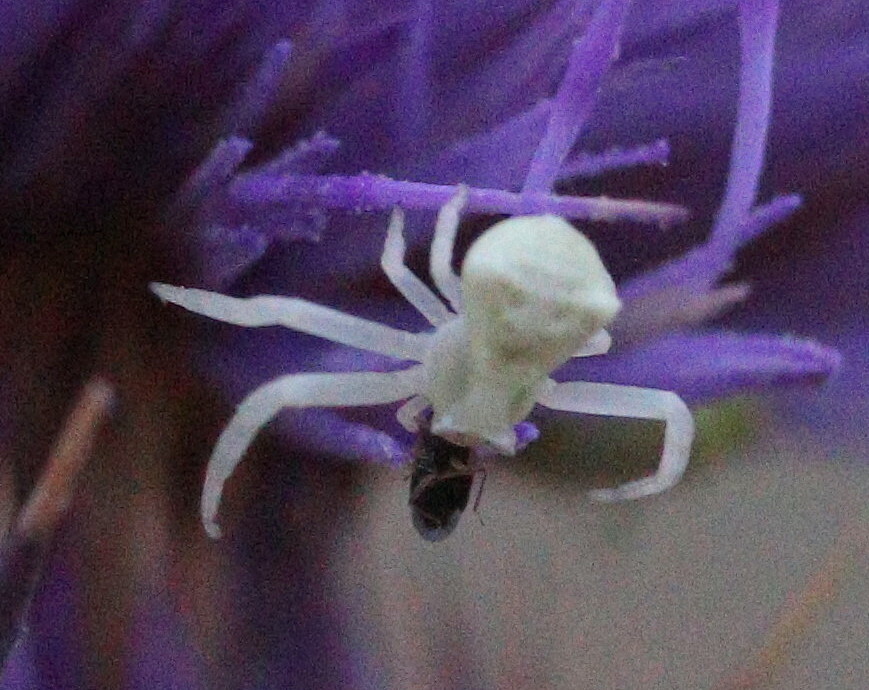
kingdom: Animalia
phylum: Arthropoda
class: Arachnida
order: Araneae
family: Thomisidae
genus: Thomisus
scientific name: Thomisus onustus
